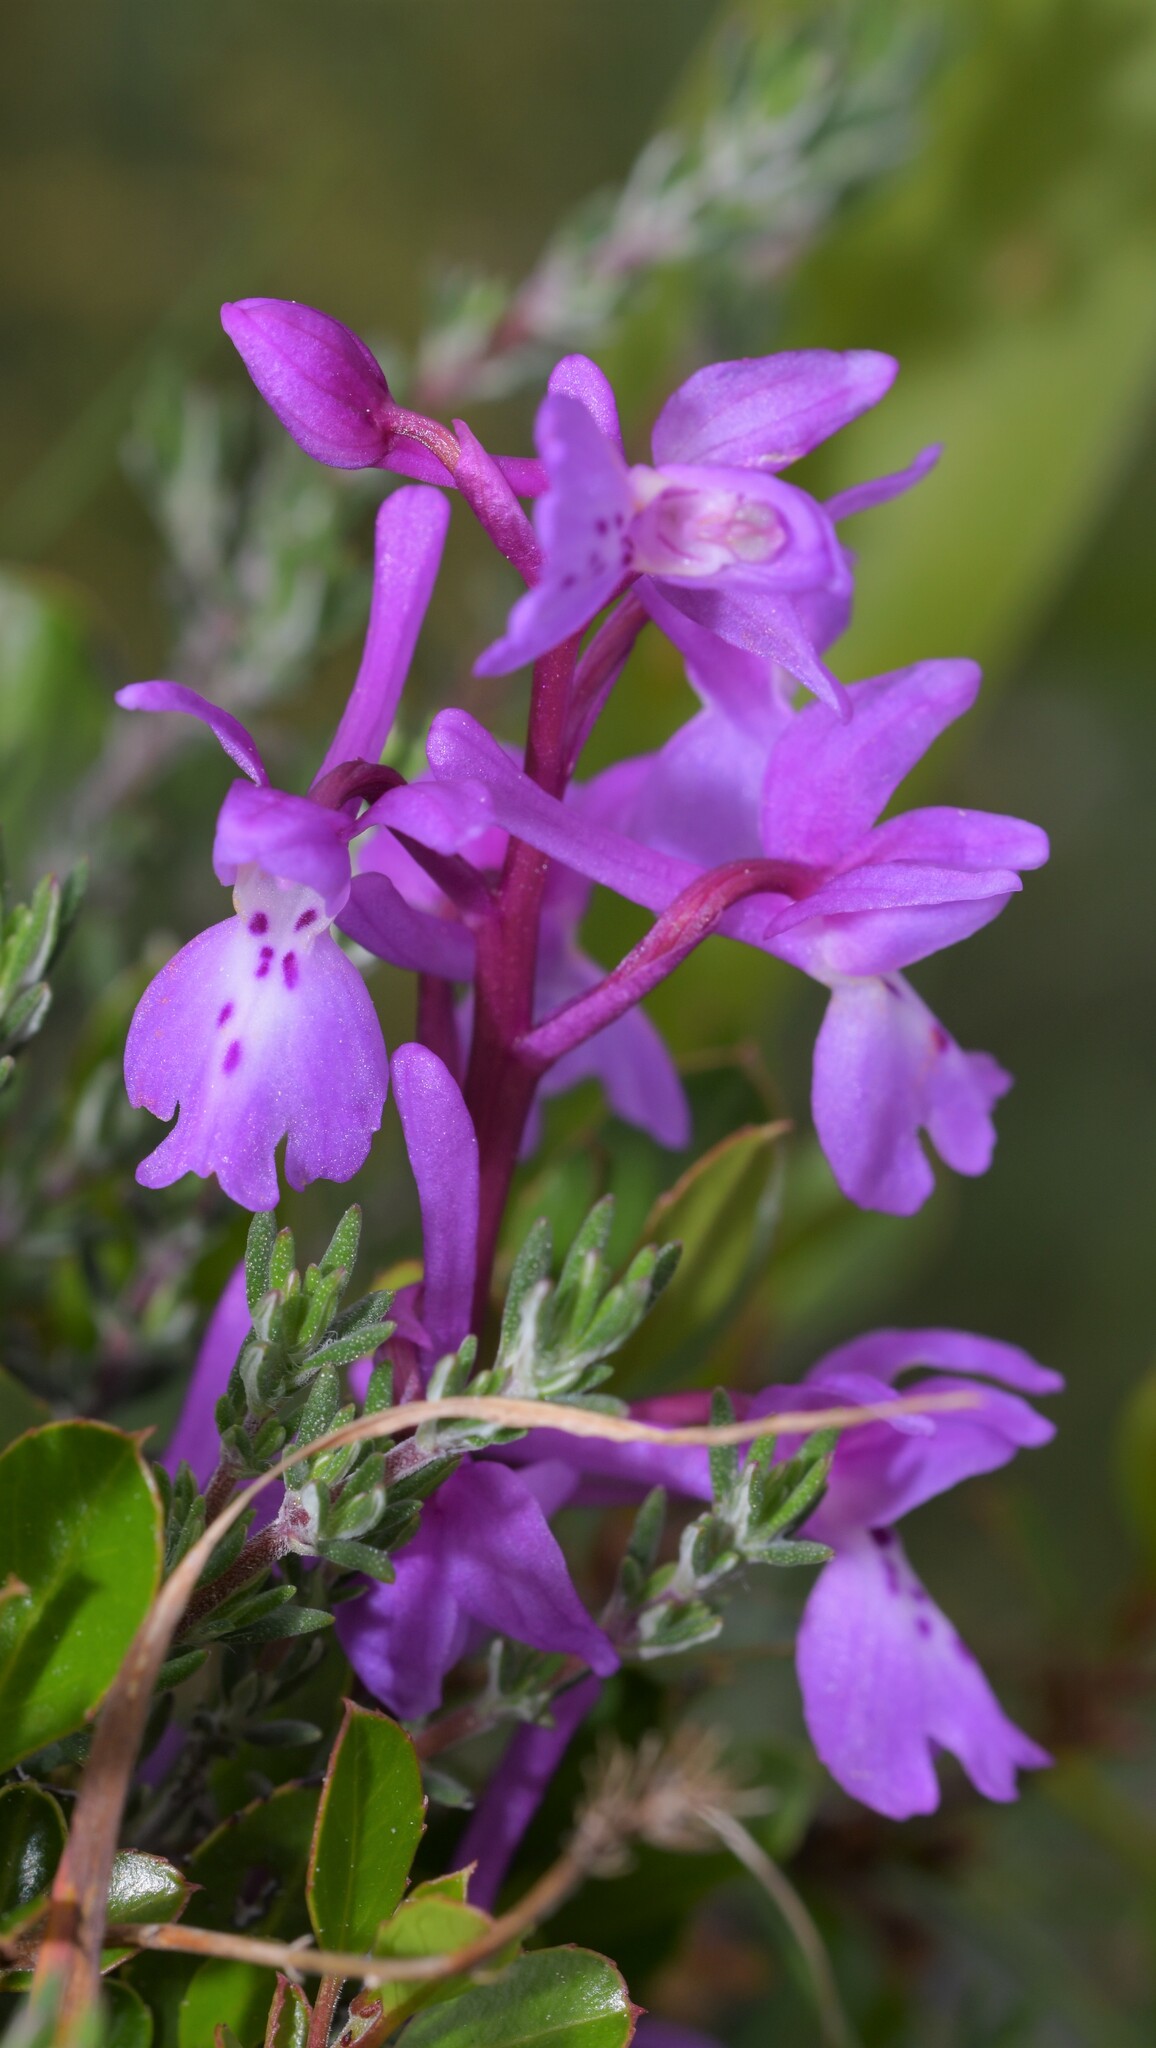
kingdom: Plantae
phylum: Tracheophyta
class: Liliopsida
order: Asparagales
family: Orchidaceae
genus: Orchis
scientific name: Orchis olbiensis
